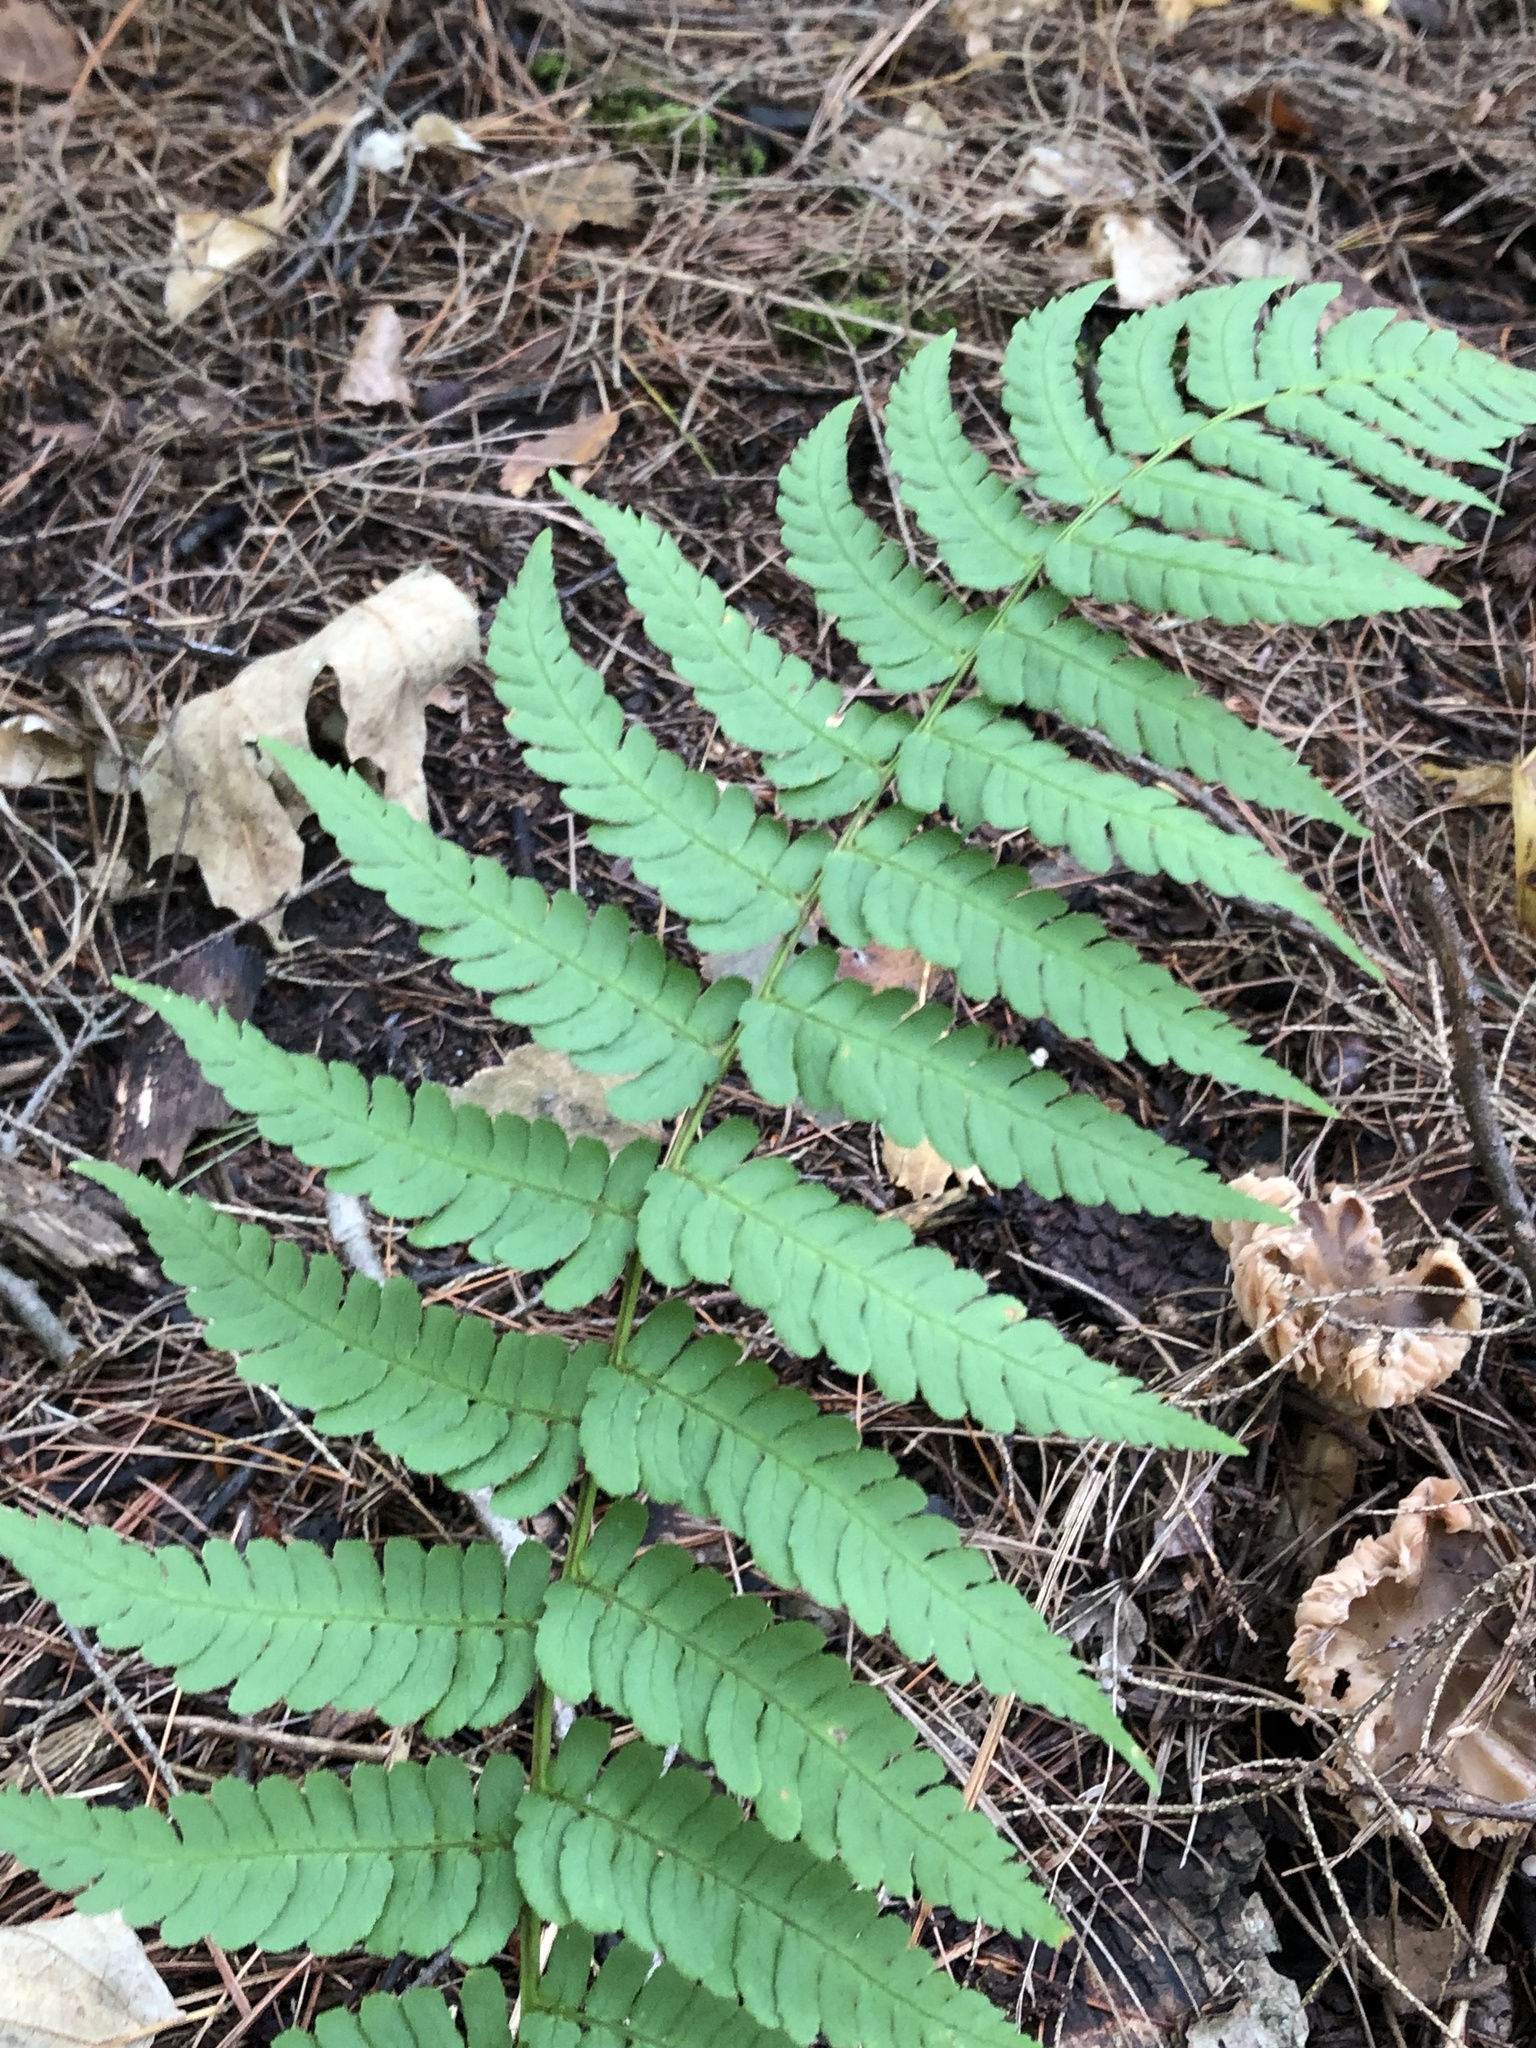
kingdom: Plantae
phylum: Tracheophyta
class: Polypodiopsida
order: Polypodiales
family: Dryopteridaceae
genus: Dryopteris
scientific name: Dryopteris marginalis
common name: Marginal wood fern
